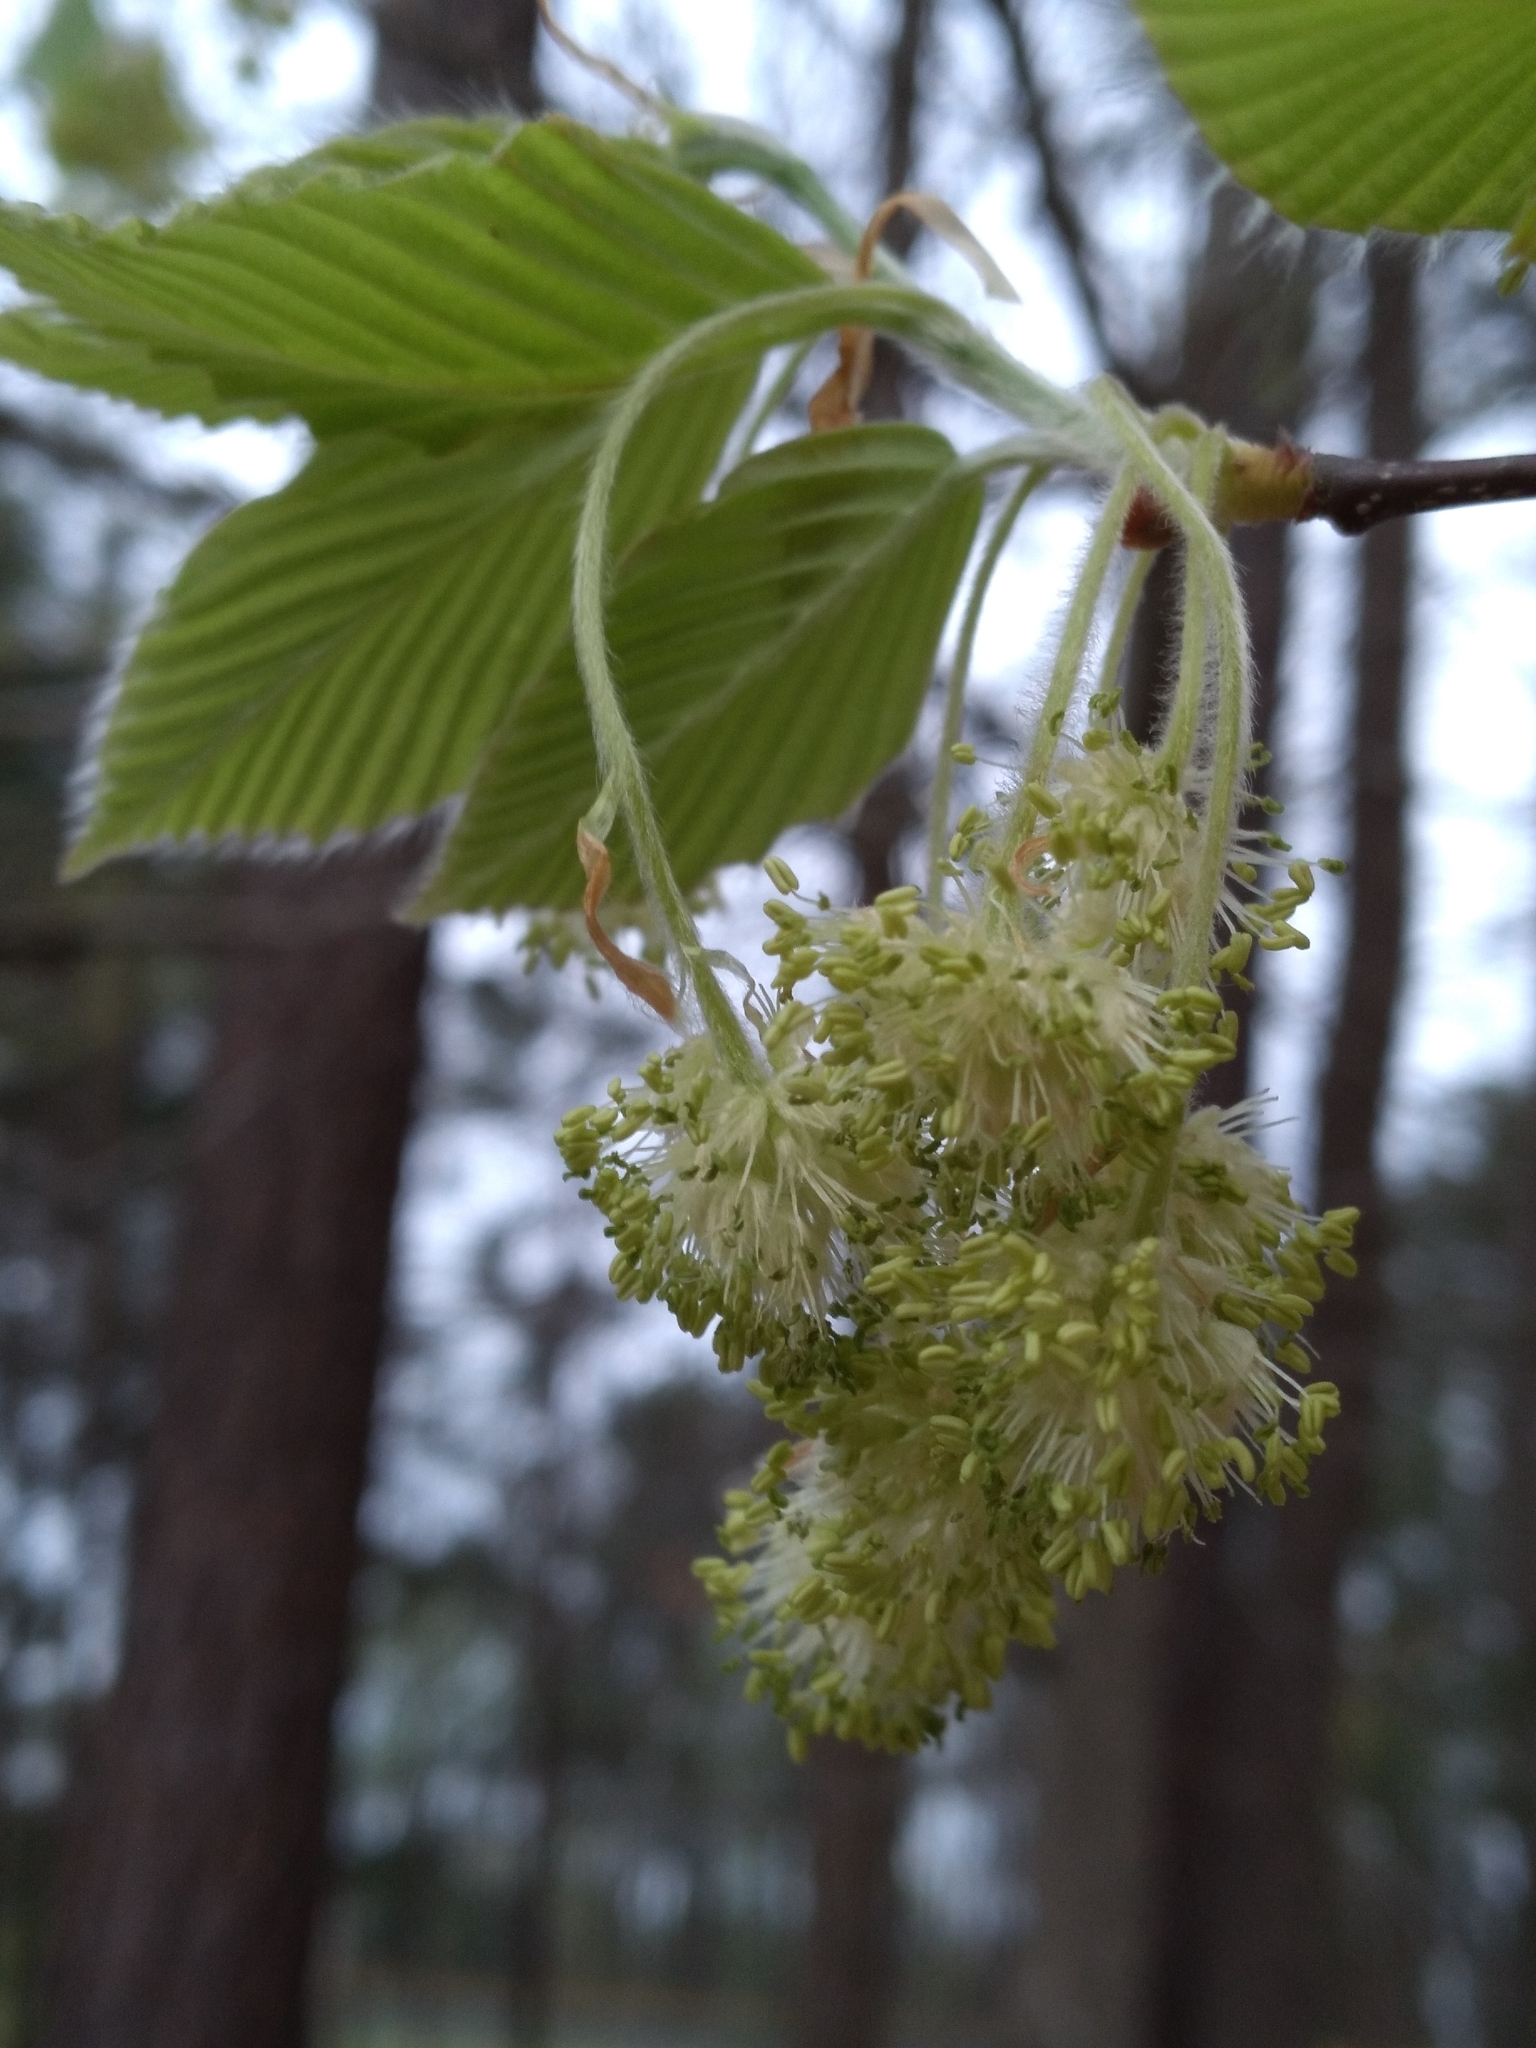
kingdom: Plantae
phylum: Tracheophyta
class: Magnoliopsida
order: Fagales
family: Fagaceae
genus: Fagus
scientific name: Fagus grandifolia
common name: American beech
